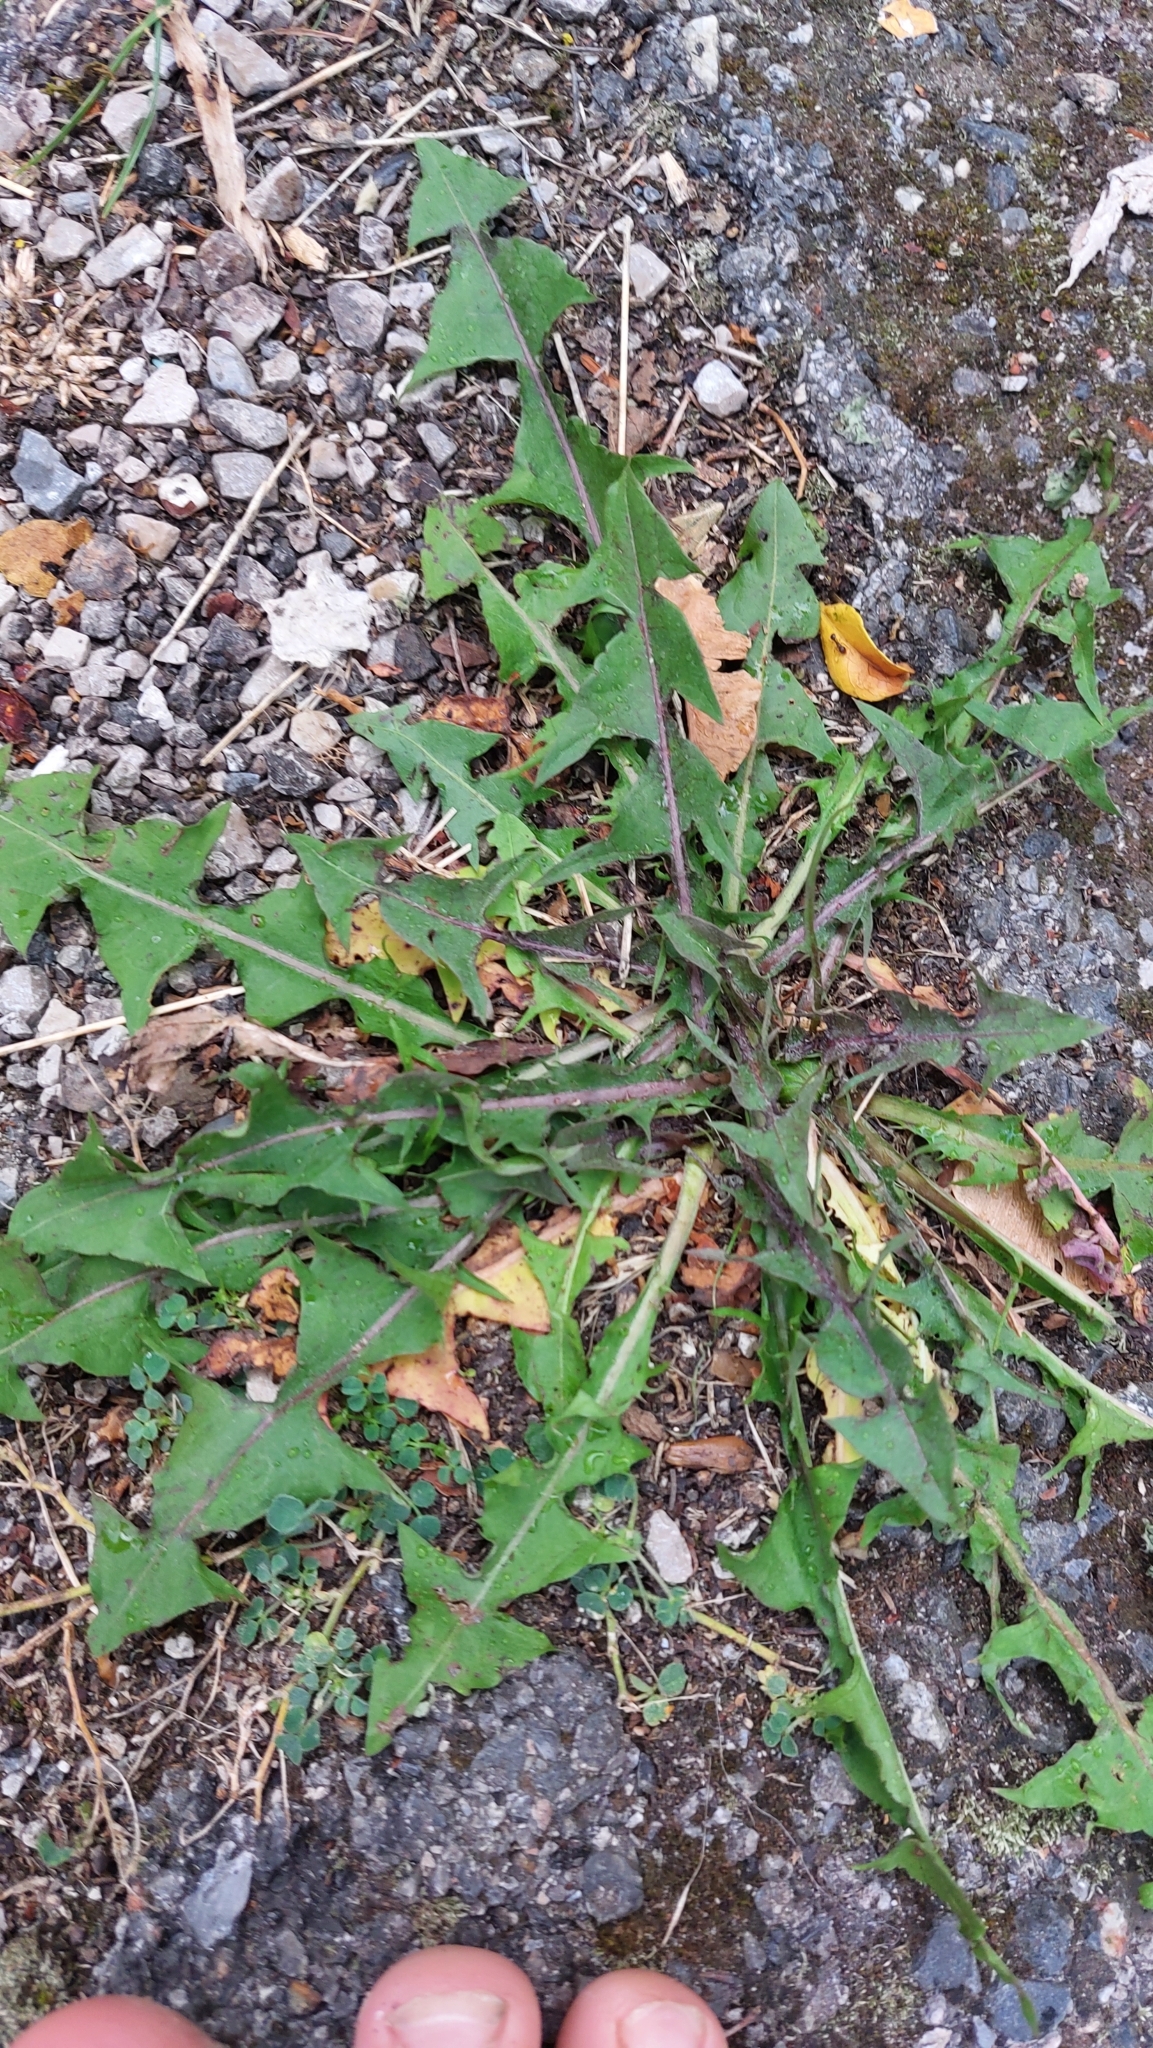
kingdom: Plantae
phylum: Tracheophyta
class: Magnoliopsida
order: Asterales
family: Asteraceae
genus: Taraxacum
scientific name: Taraxacum
